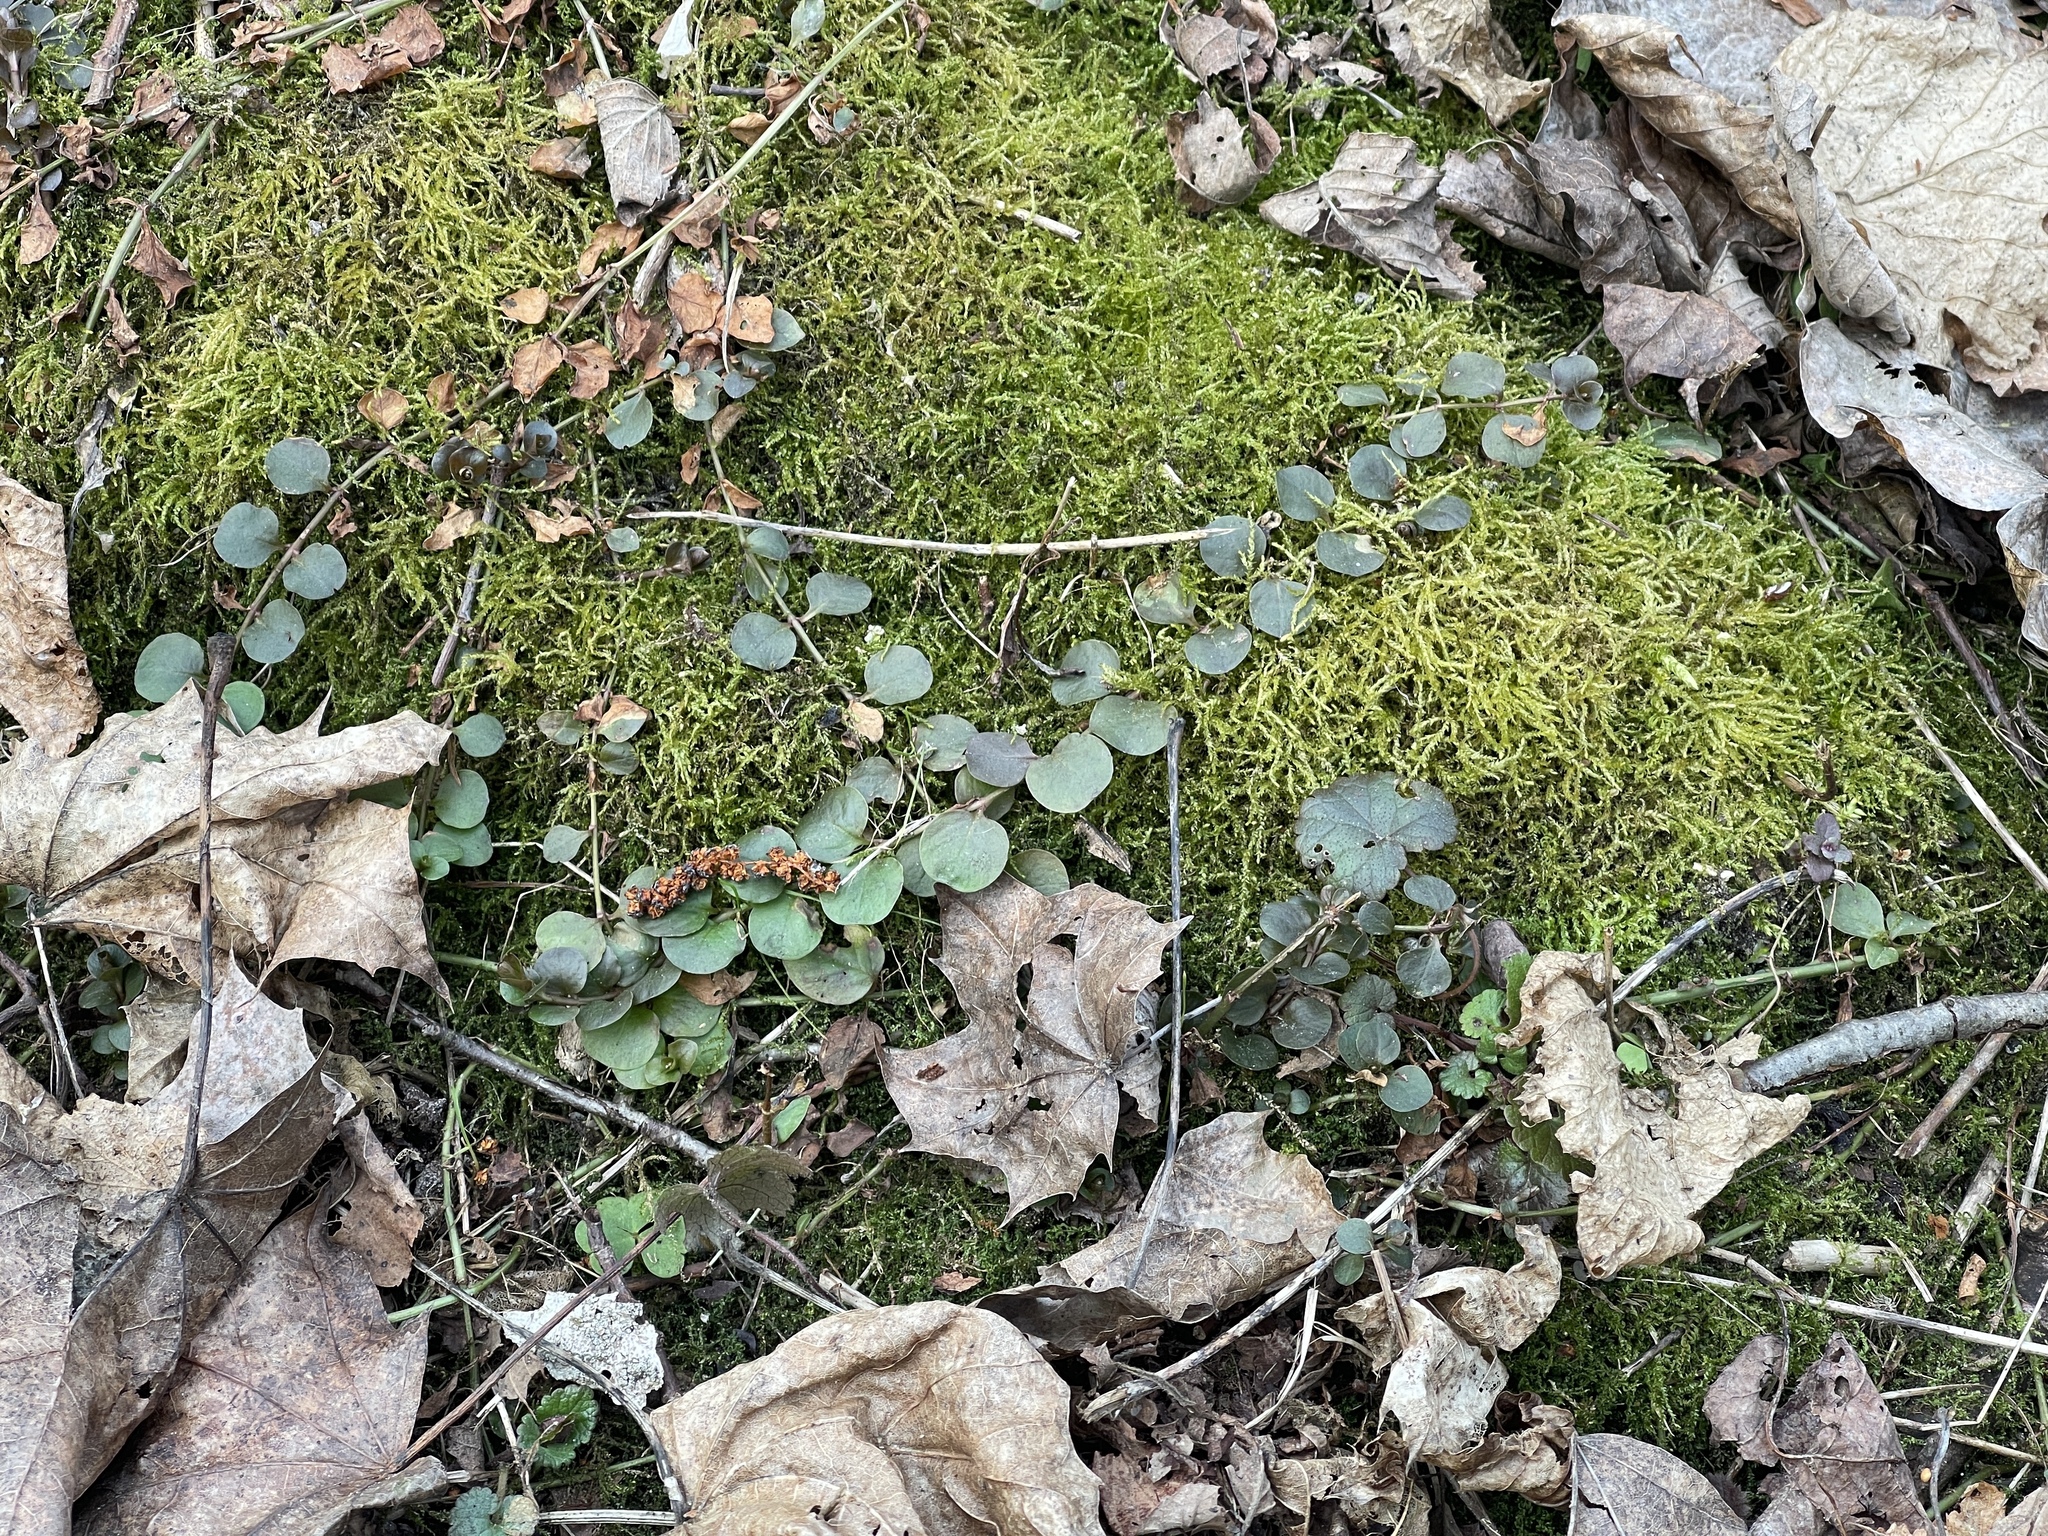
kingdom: Plantae
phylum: Tracheophyta
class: Magnoliopsida
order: Ericales
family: Primulaceae
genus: Lysimachia
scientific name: Lysimachia nummularia
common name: Moneywort
